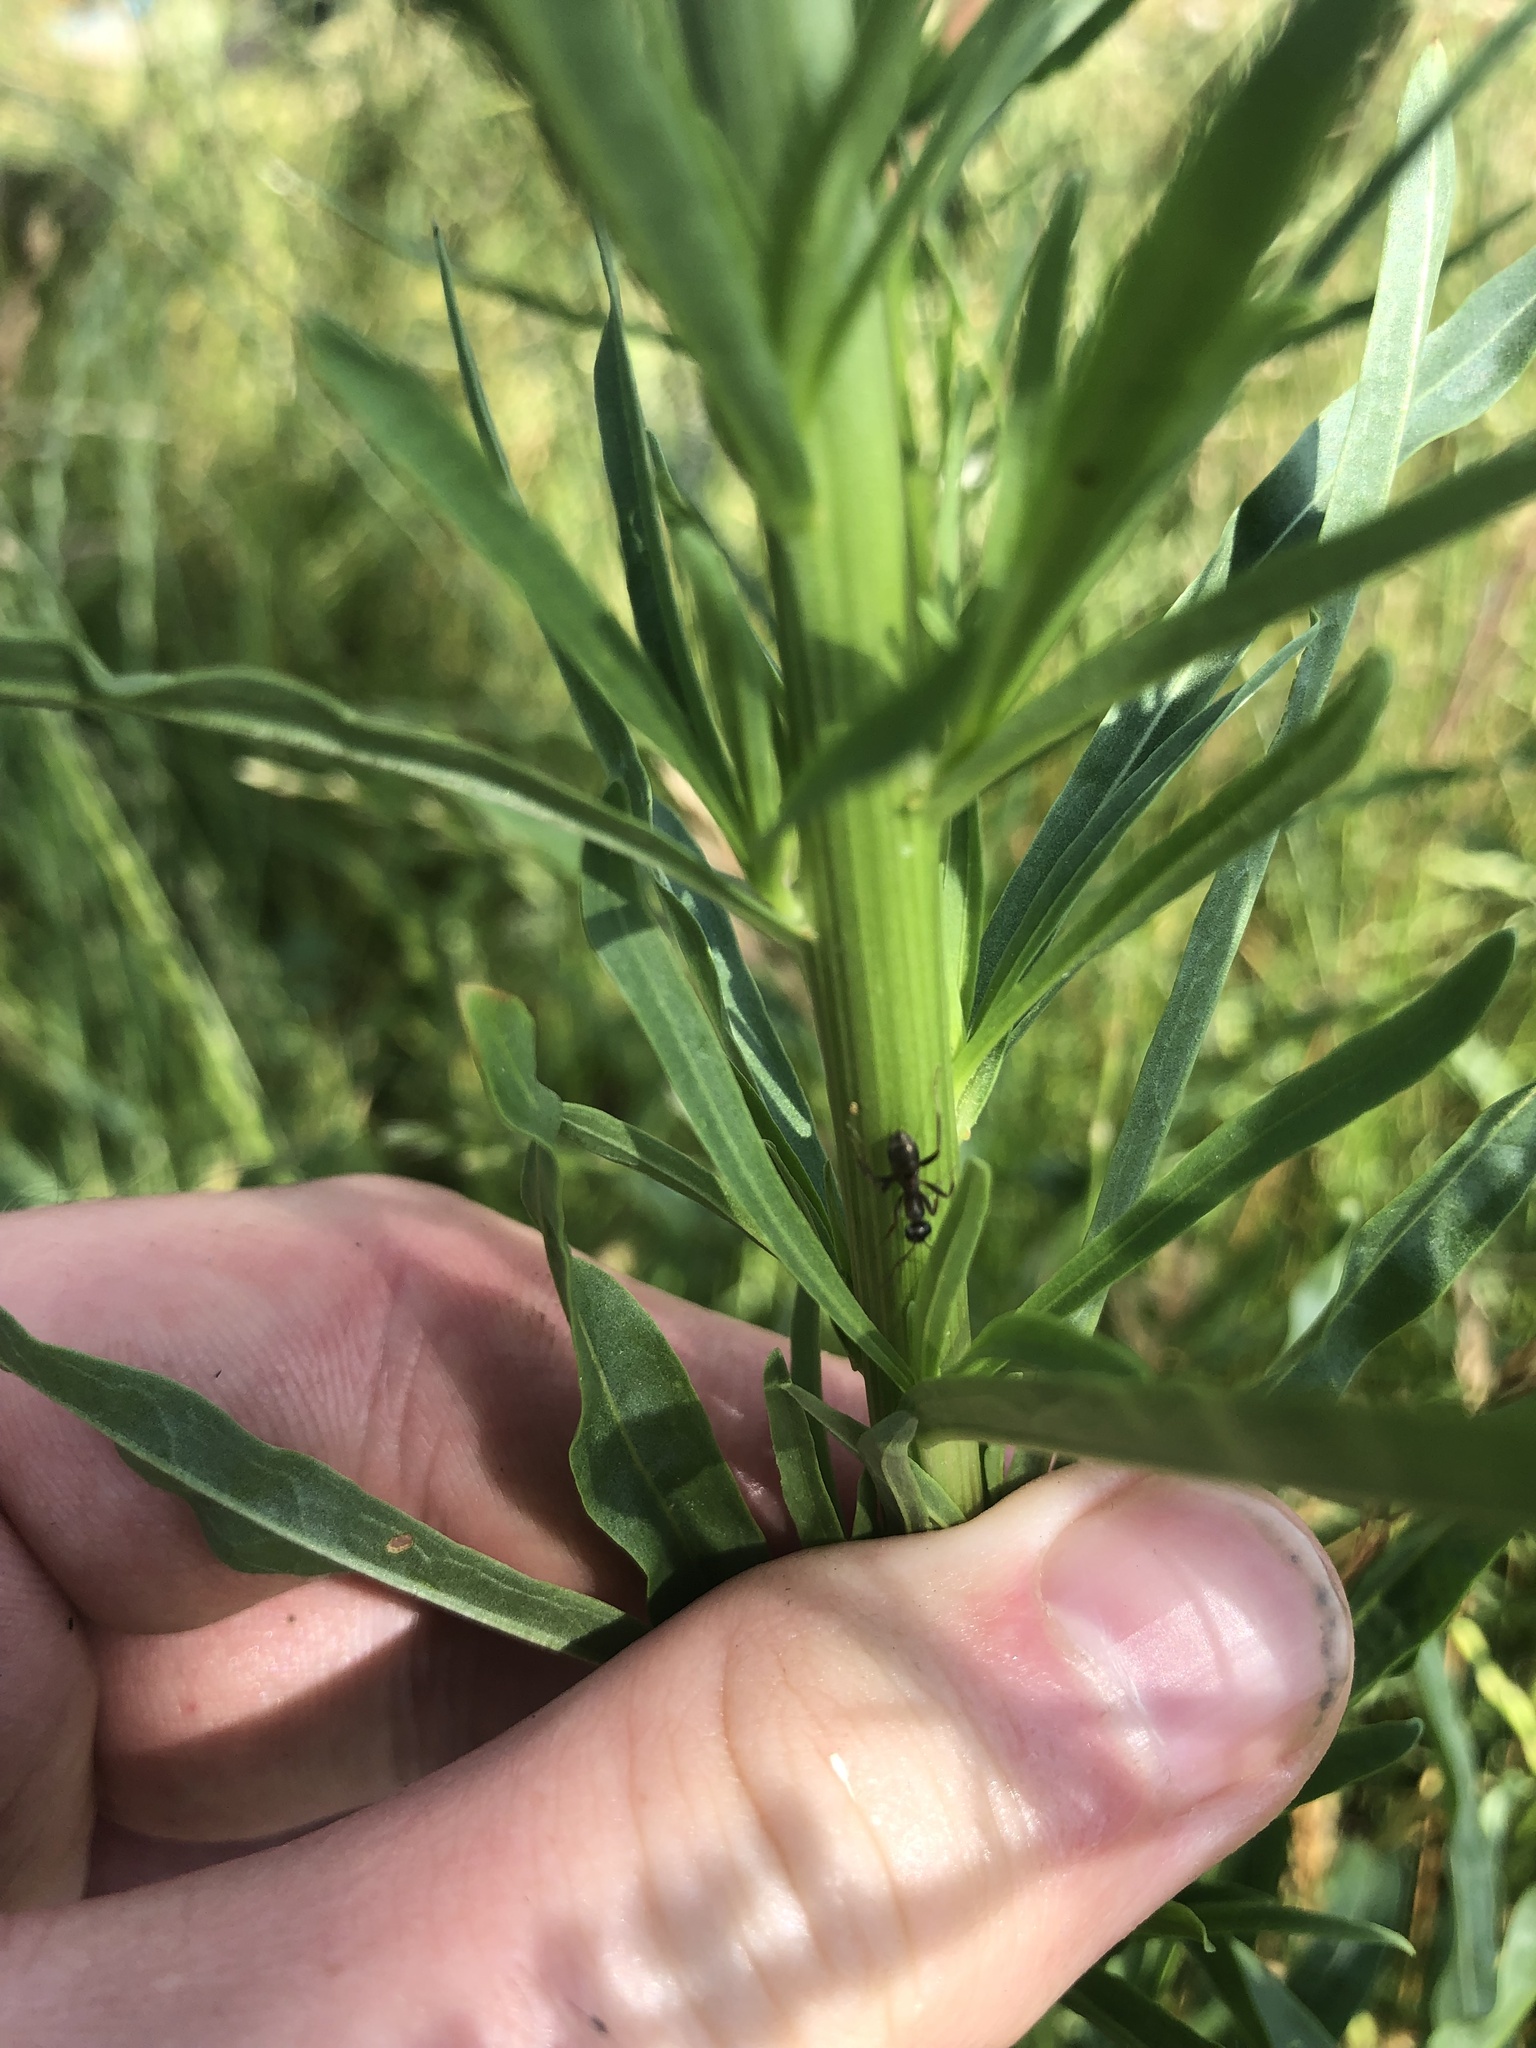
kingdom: Plantae
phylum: Tracheophyta
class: Magnoliopsida
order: Brassicales
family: Resedaceae
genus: Reseda
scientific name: Reseda luteola
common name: Weld
